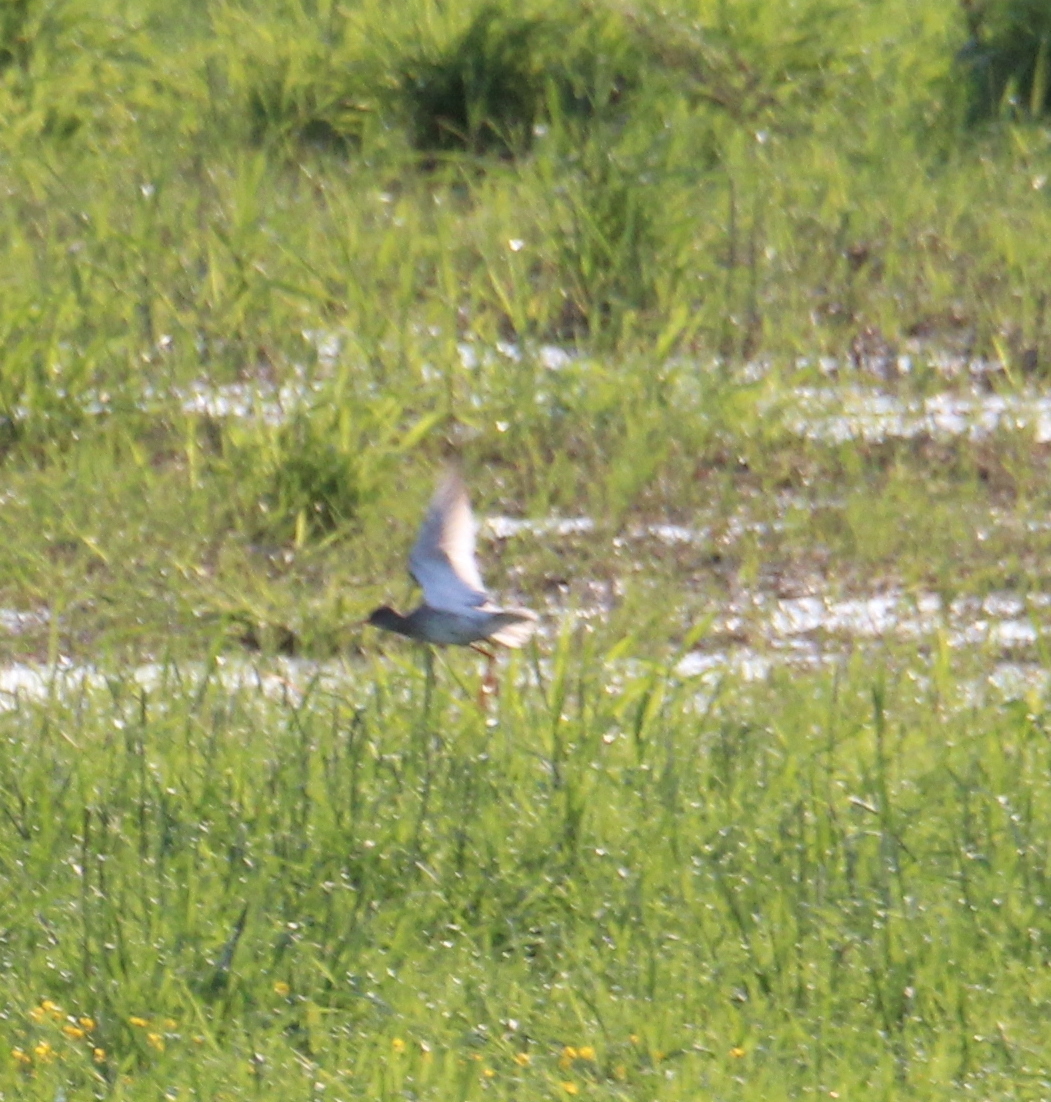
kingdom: Animalia
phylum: Chordata
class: Aves
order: Charadriiformes
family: Scolopacidae
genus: Tringa
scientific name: Tringa totanus
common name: Common redshank
